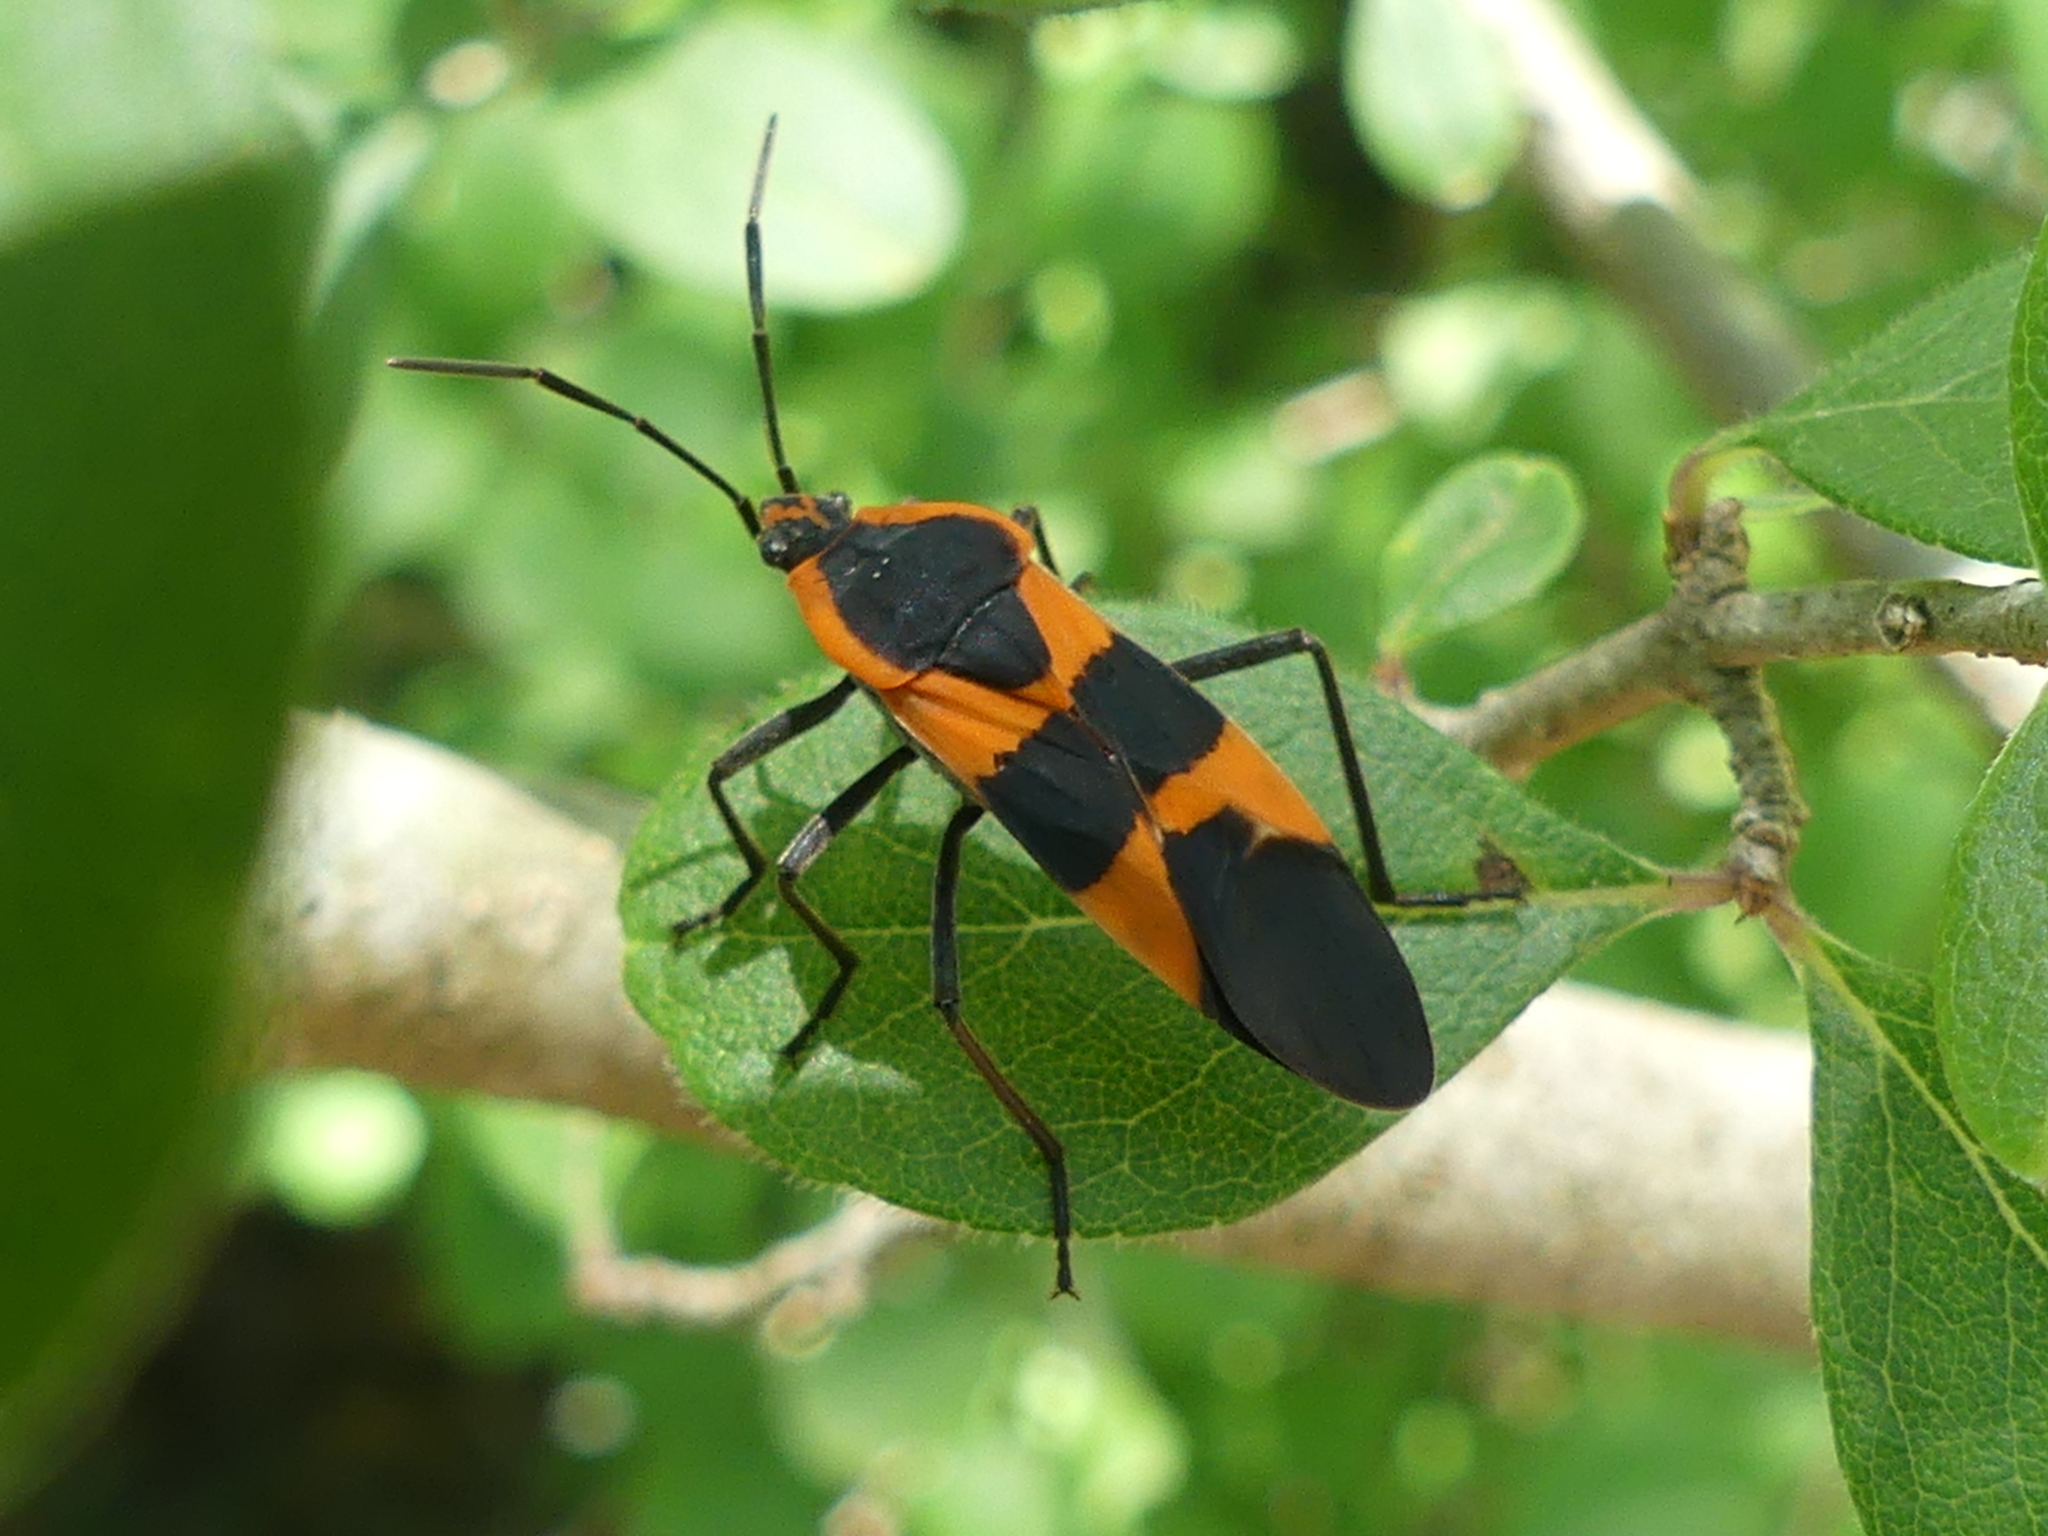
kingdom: Animalia
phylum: Arthropoda
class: Insecta
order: Hemiptera
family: Lygaeidae
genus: Oncopeltus
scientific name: Oncopeltus fasciatus
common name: Large milkweed bug
